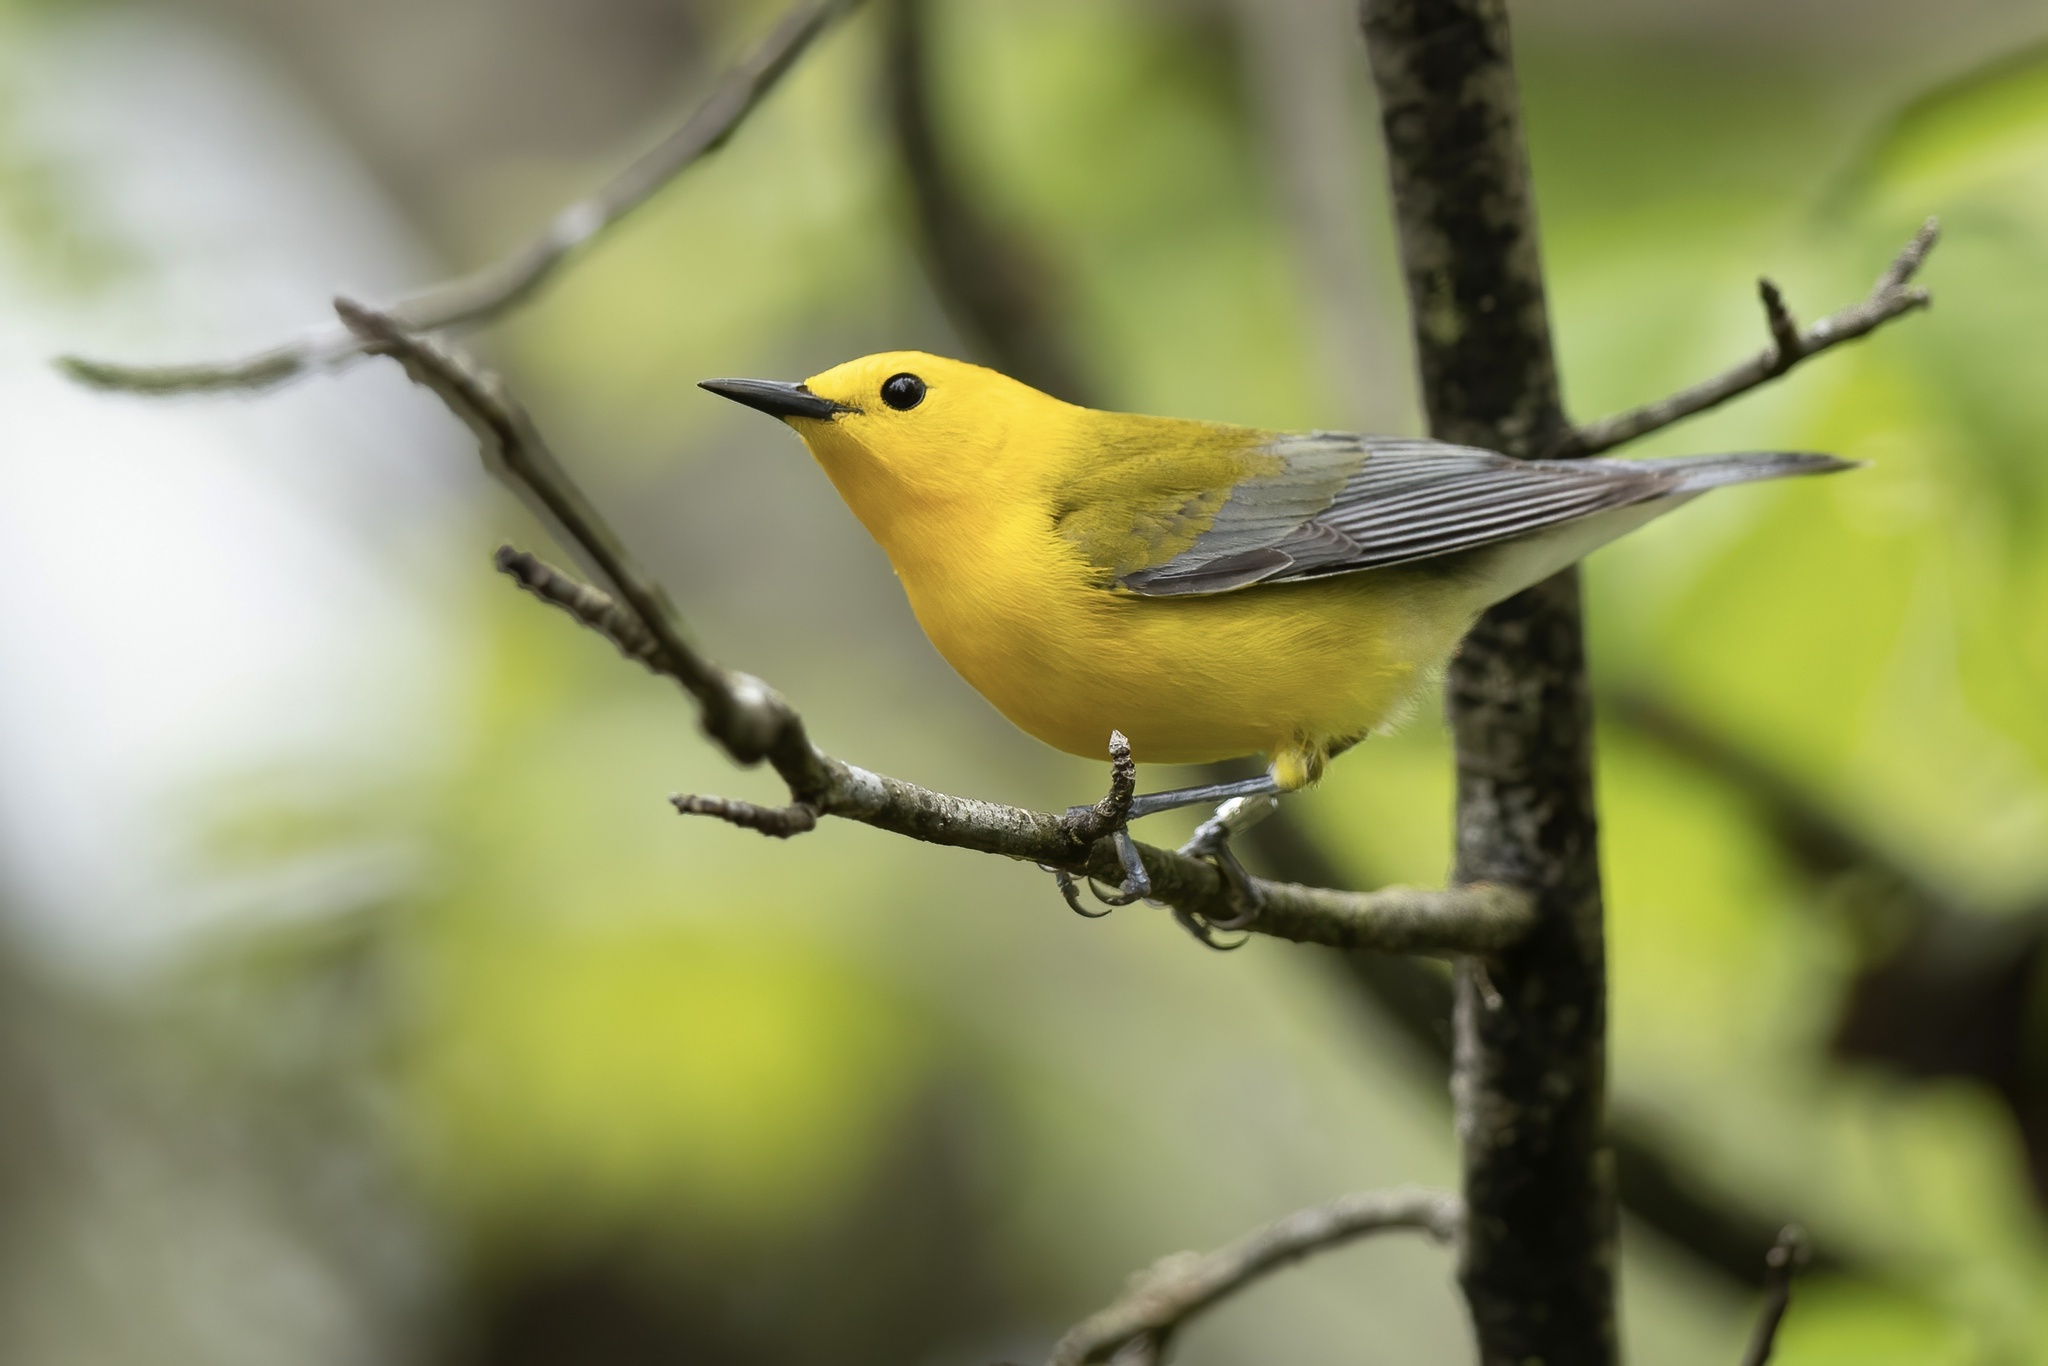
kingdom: Animalia
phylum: Chordata
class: Aves
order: Passeriformes
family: Parulidae
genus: Protonotaria
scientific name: Protonotaria citrea
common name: Prothonotary warbler
